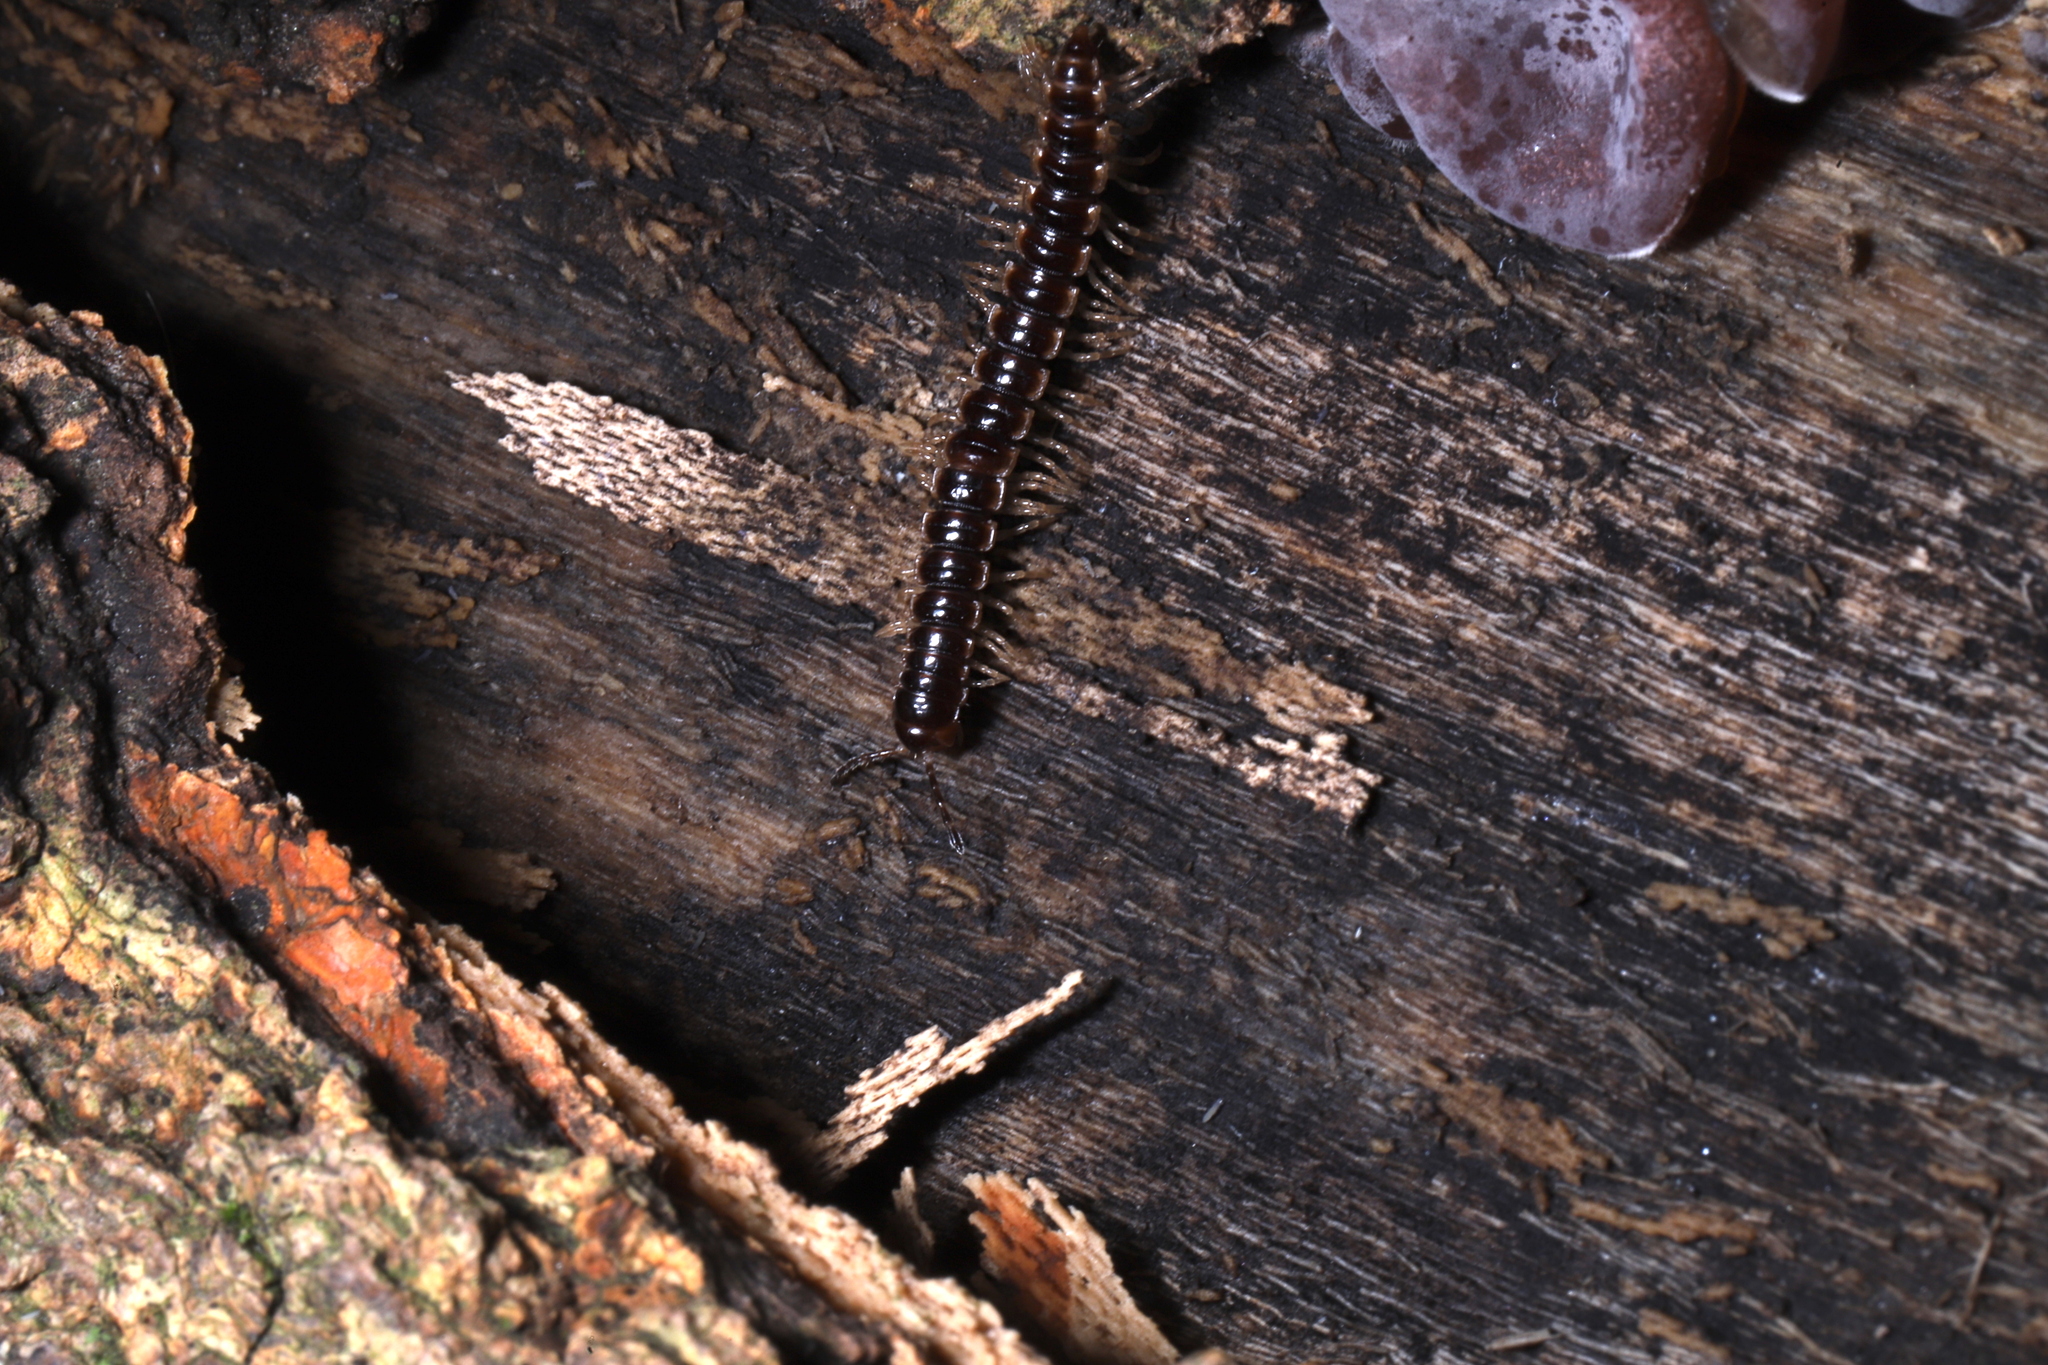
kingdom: Animalia
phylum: Arthropoda
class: Diplopoda
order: Polydesmida
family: Paradoxosomatidae
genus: Oxidus
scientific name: Oxidus gracilis
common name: Greenhouse millipede
